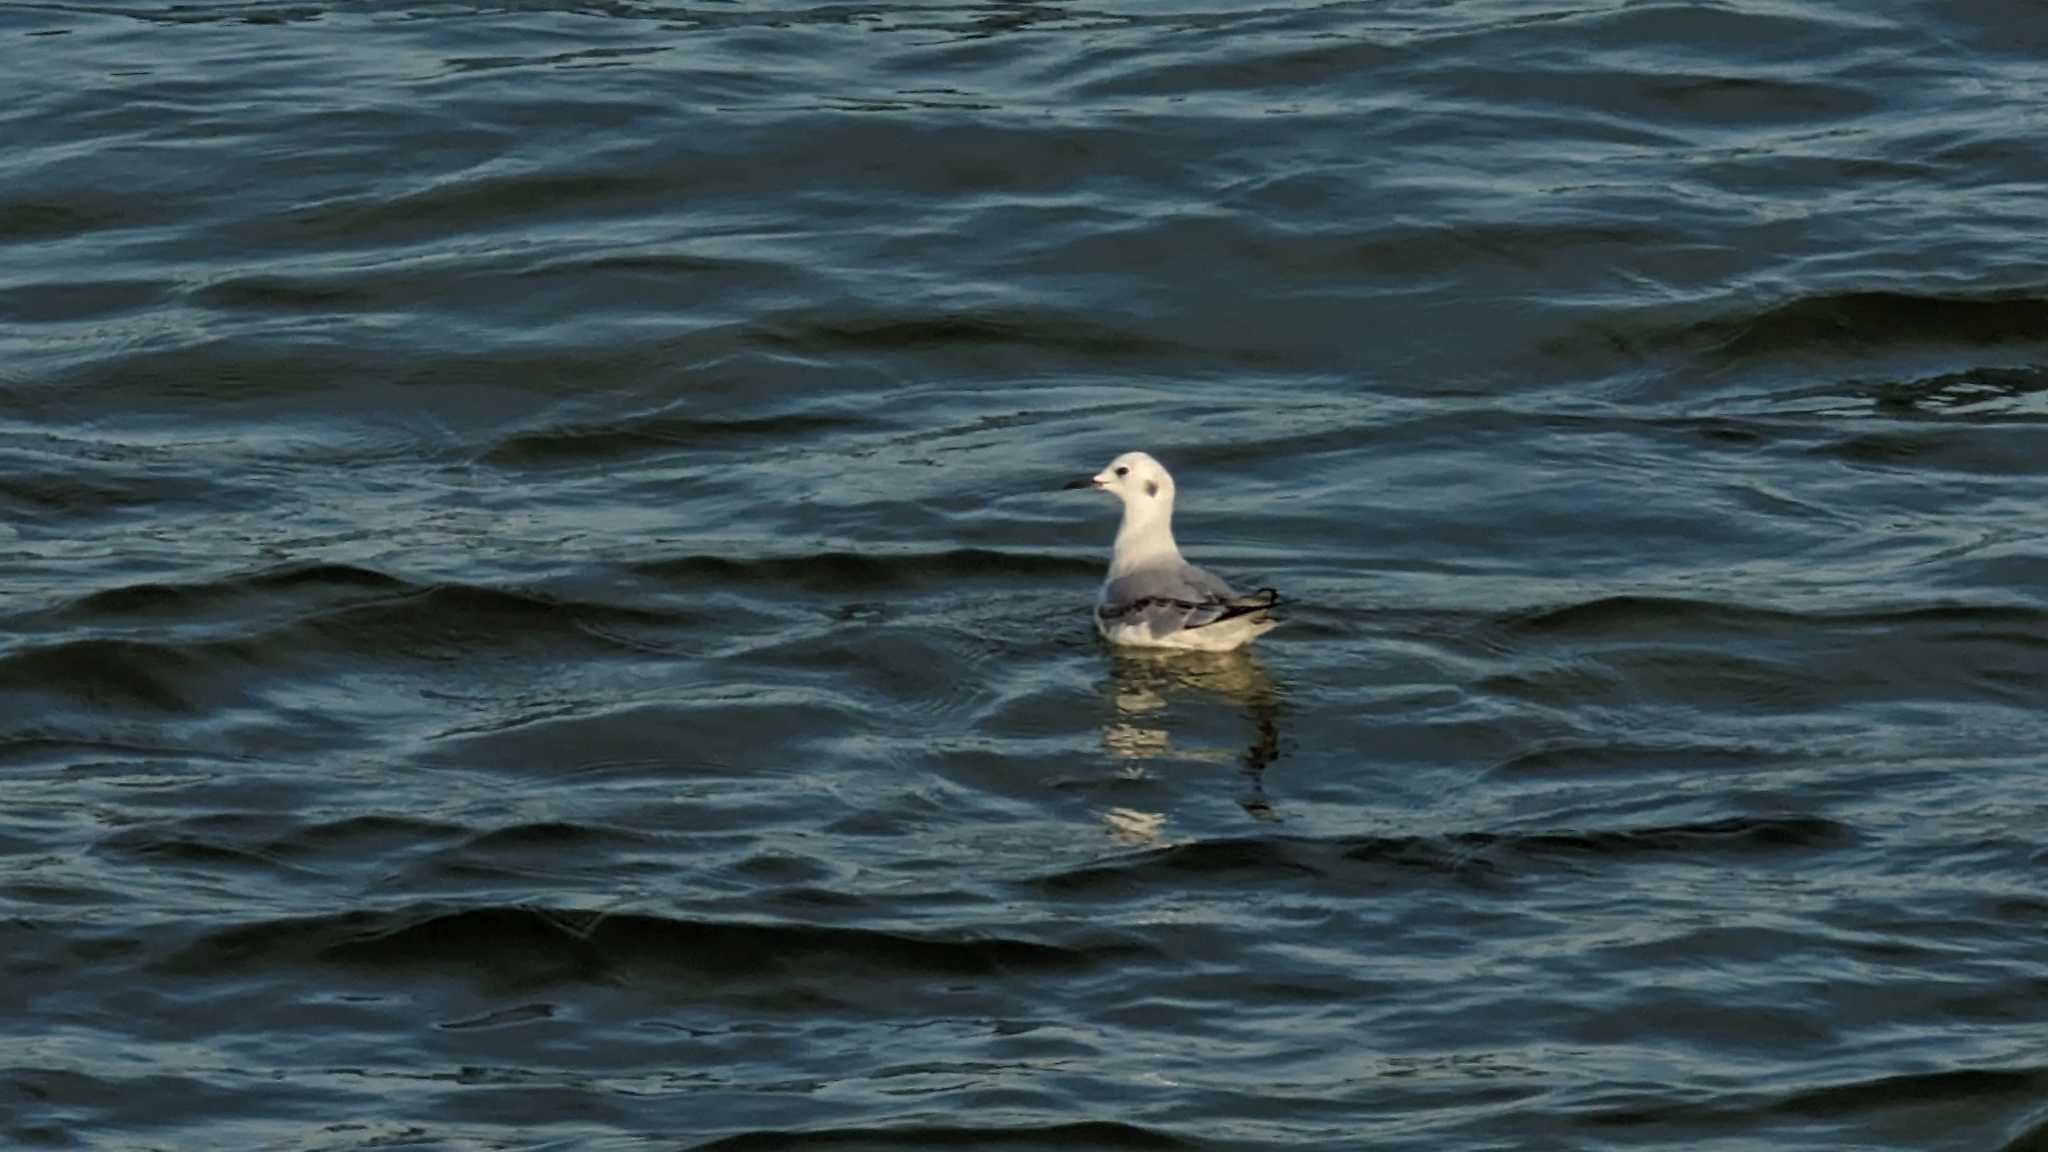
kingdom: Animalia
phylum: Chordata
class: Aves
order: Charadriiformes
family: Laridae
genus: Chroicocephalus
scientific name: Chroicocephalus philadelphia
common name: Bonaparte's gull
